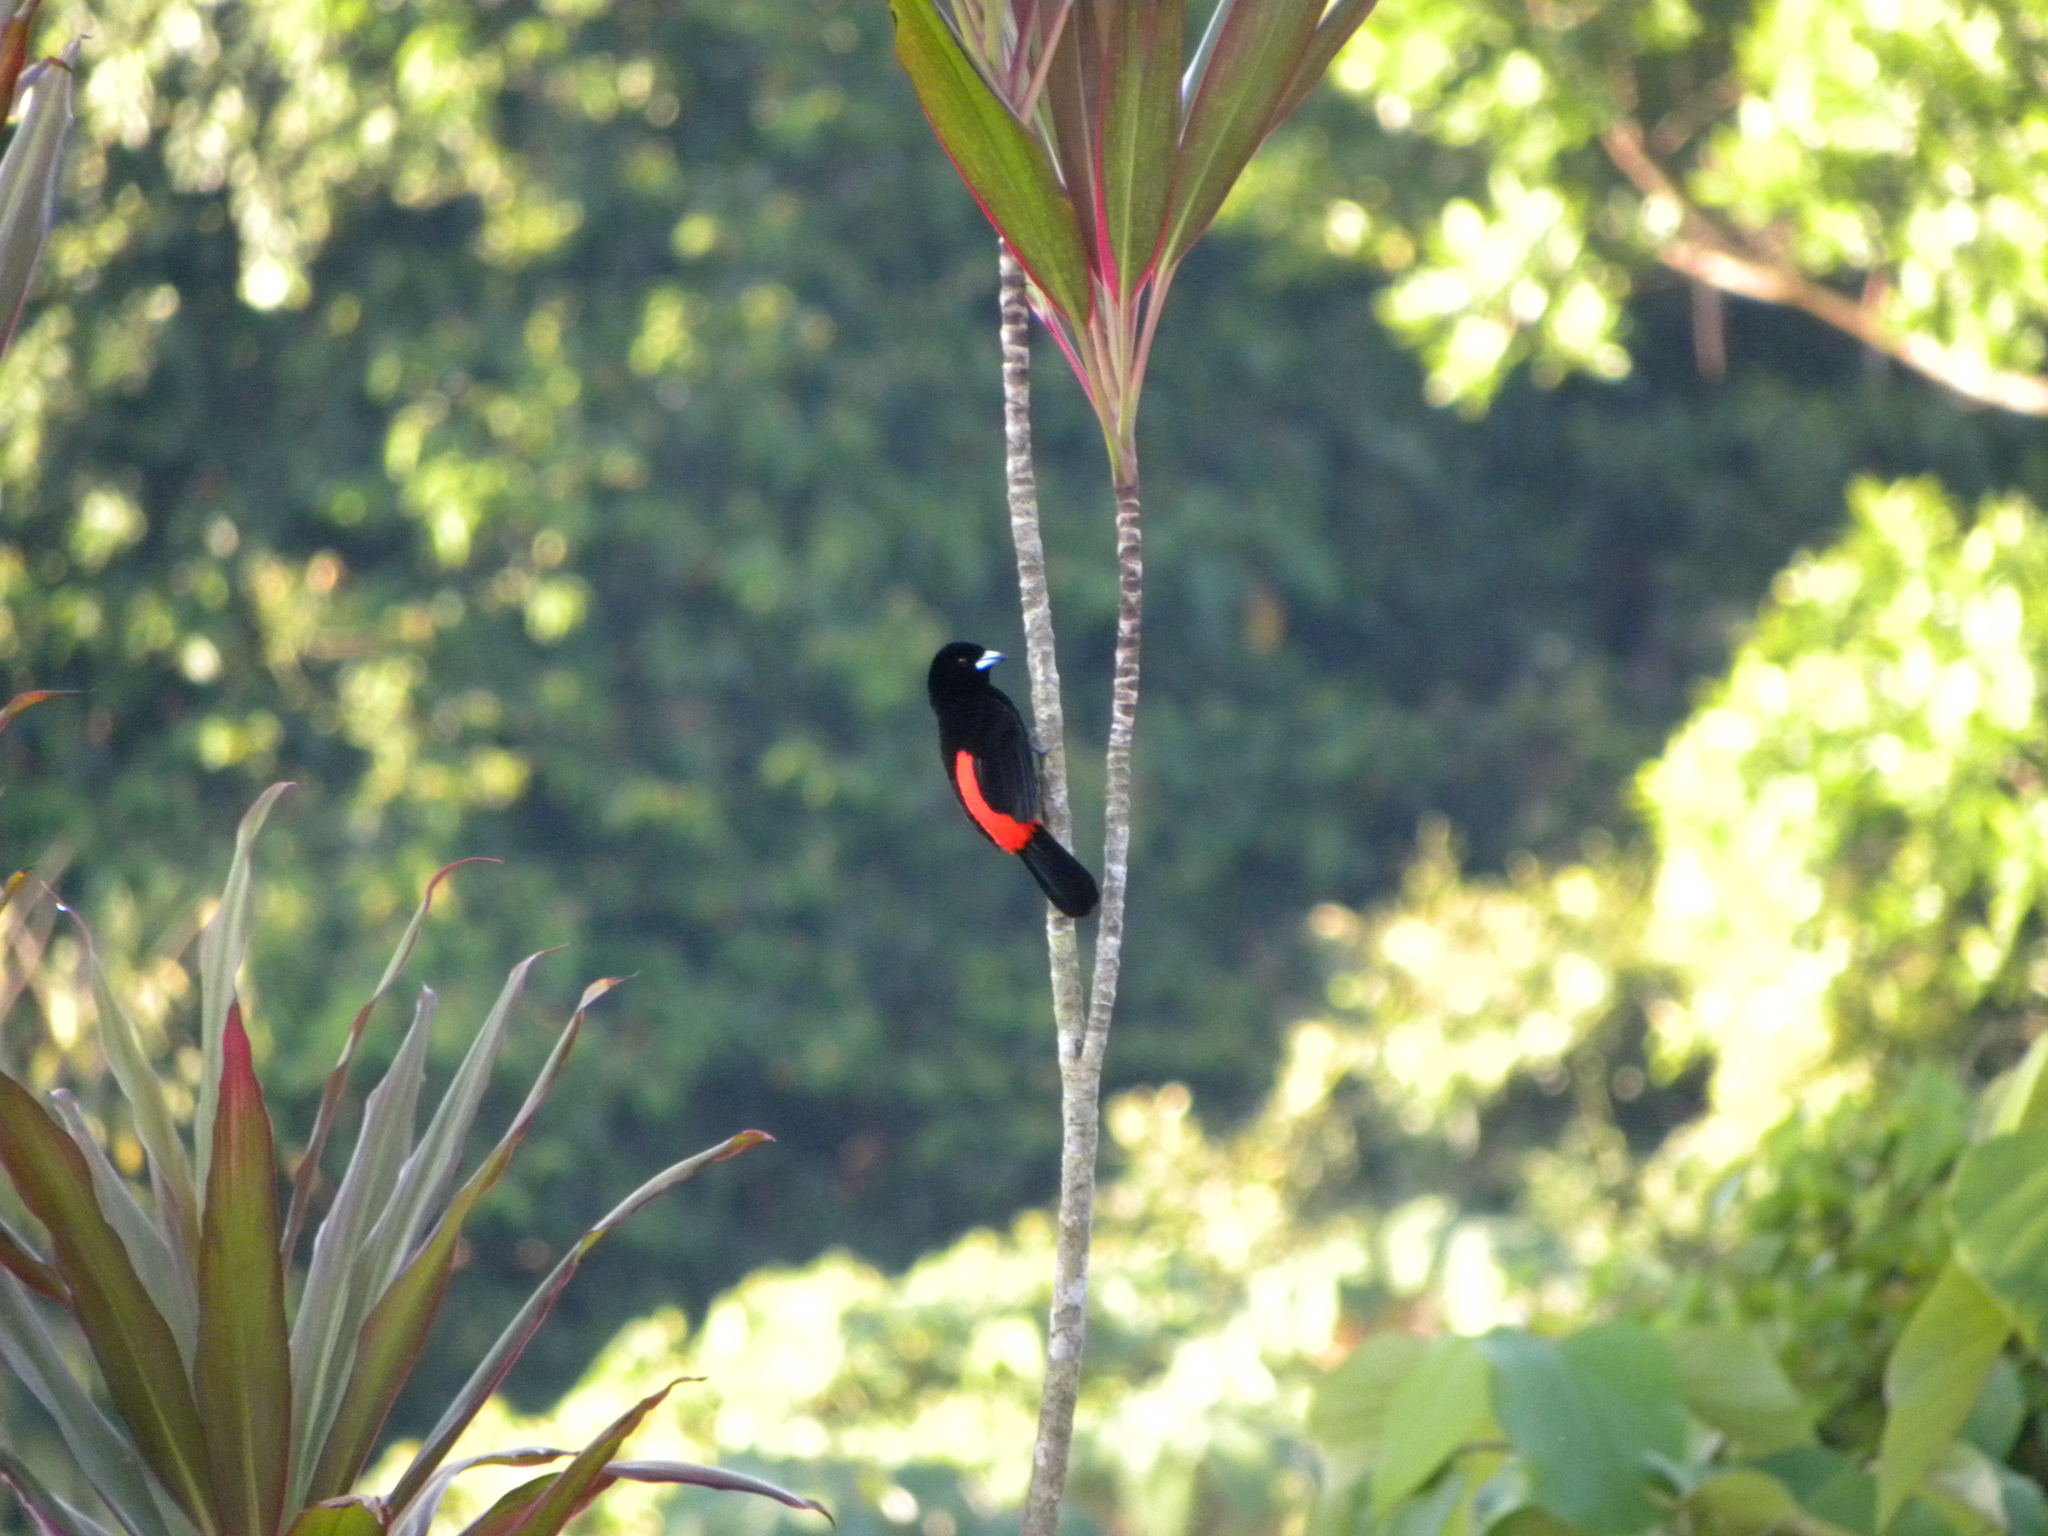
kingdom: Animalia
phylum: Chordata
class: Aves
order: Passeriformes
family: Thraupidae
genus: Ramphocelus
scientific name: Ramphocelus passerinii
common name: Passerini's tanager
